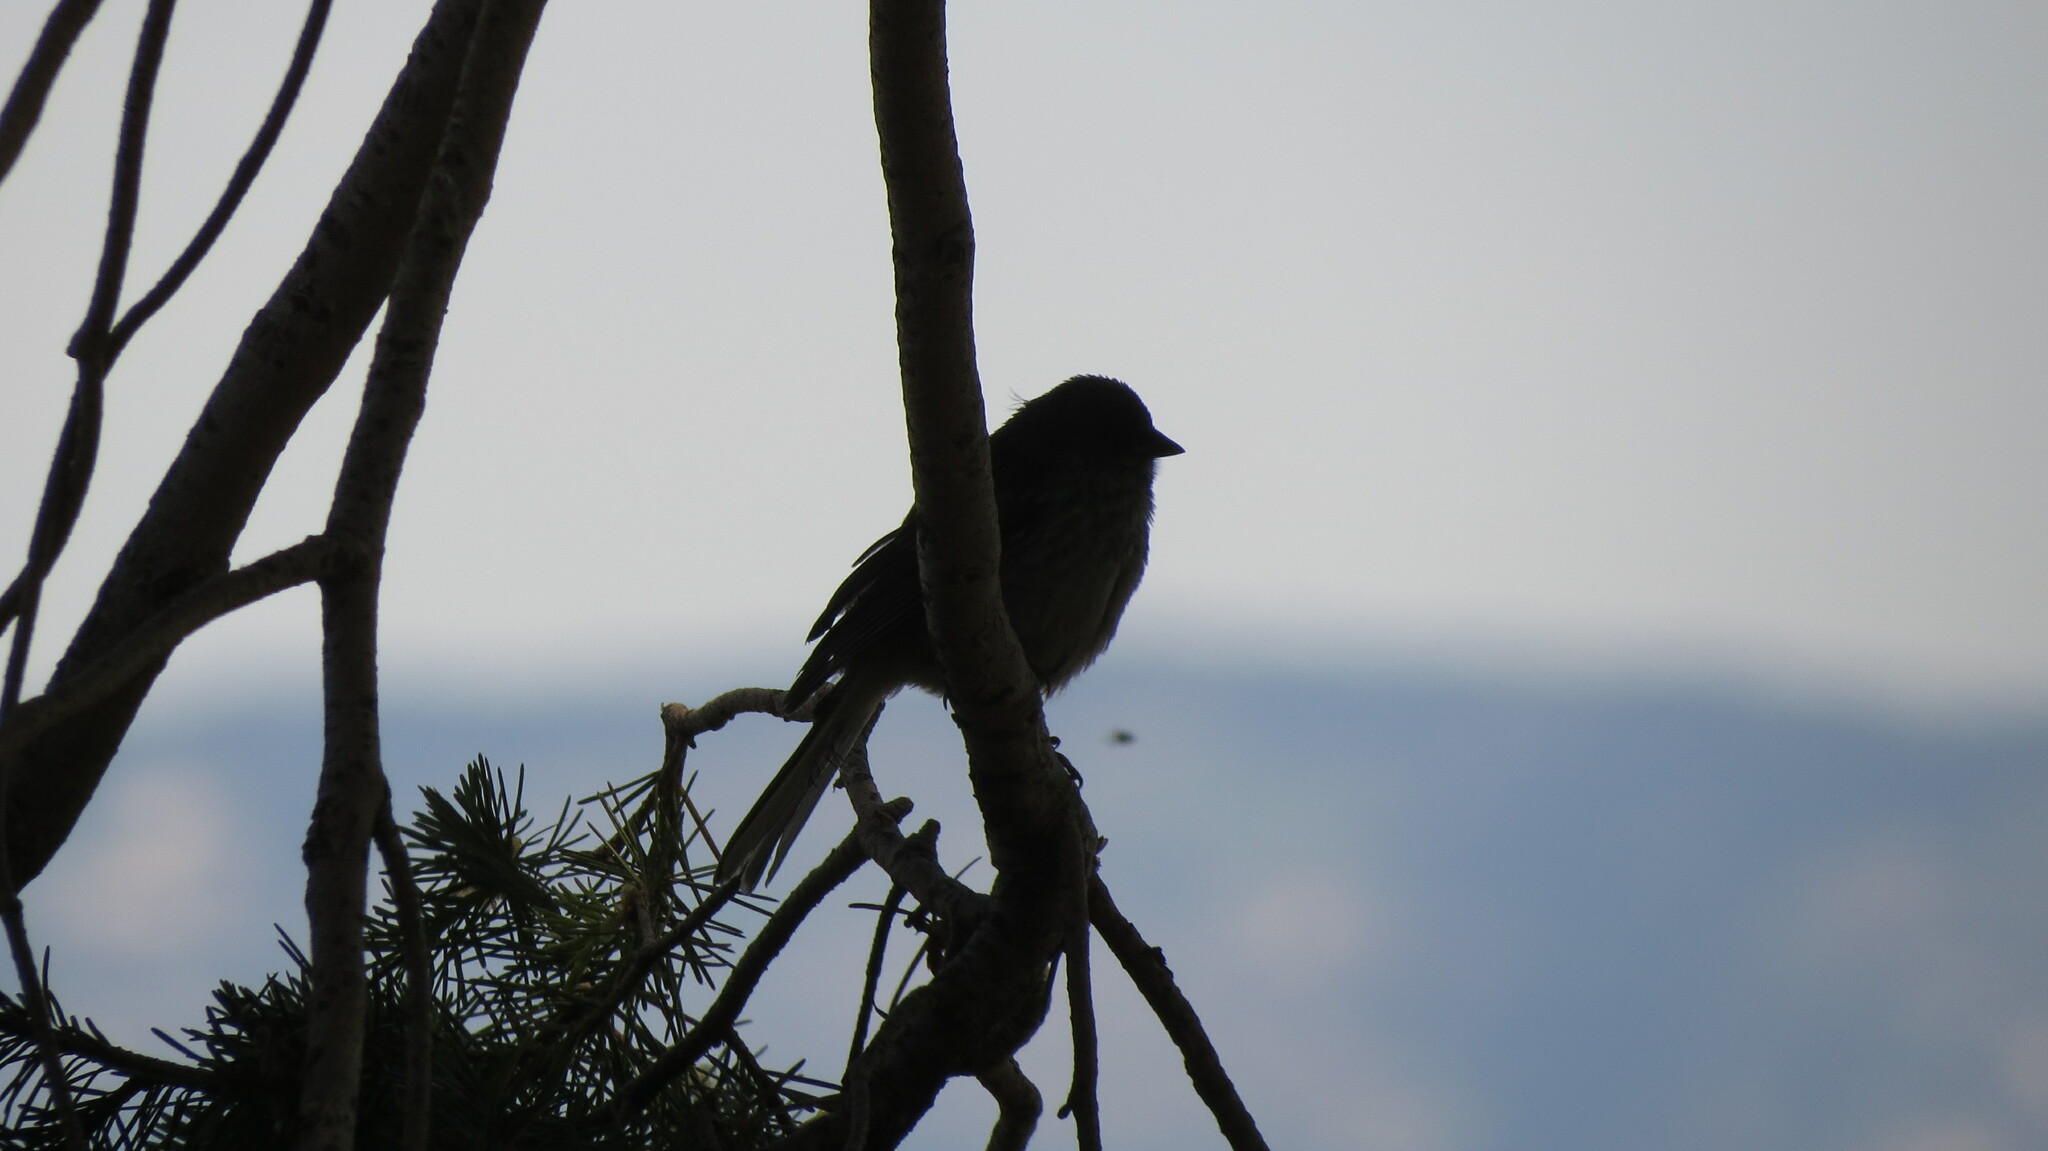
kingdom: Animalia
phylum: Chordata
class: Aves
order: Passeriformes
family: Passerellidae
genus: Pipilo
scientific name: Pipilo maculatus
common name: Spotted towhee
